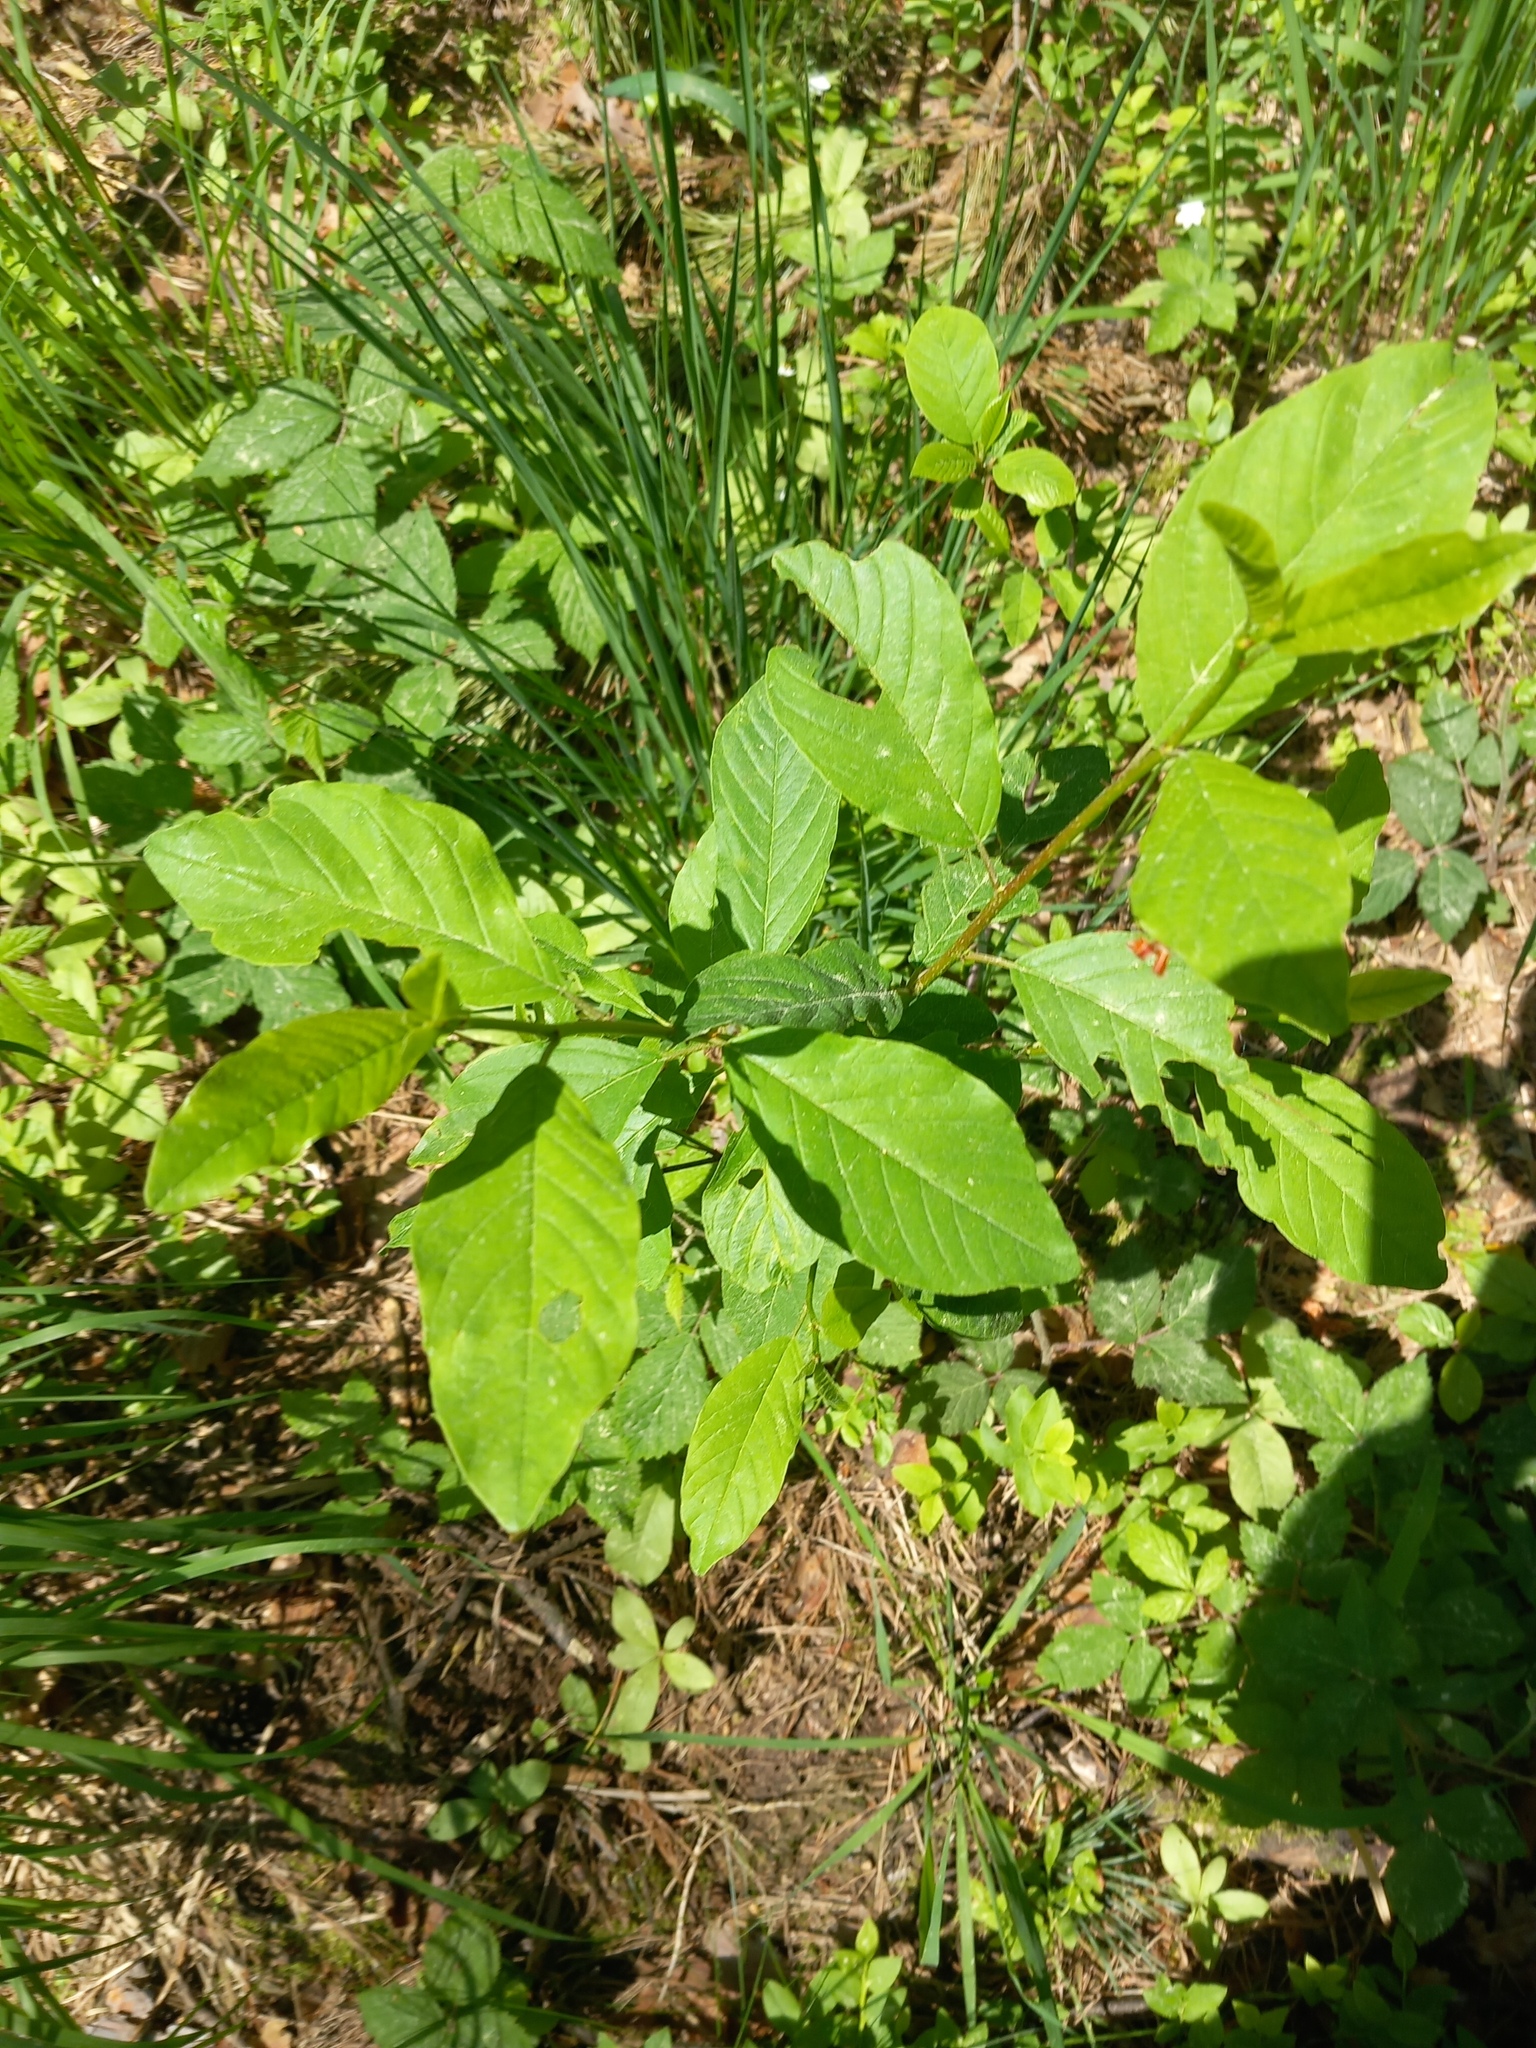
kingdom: Plantae
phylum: Tracheophyta
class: Magnoliopsida
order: Rosales
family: Rhamnaceae
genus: Frangula
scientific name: Frangula alnus
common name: Alder buckthorn
